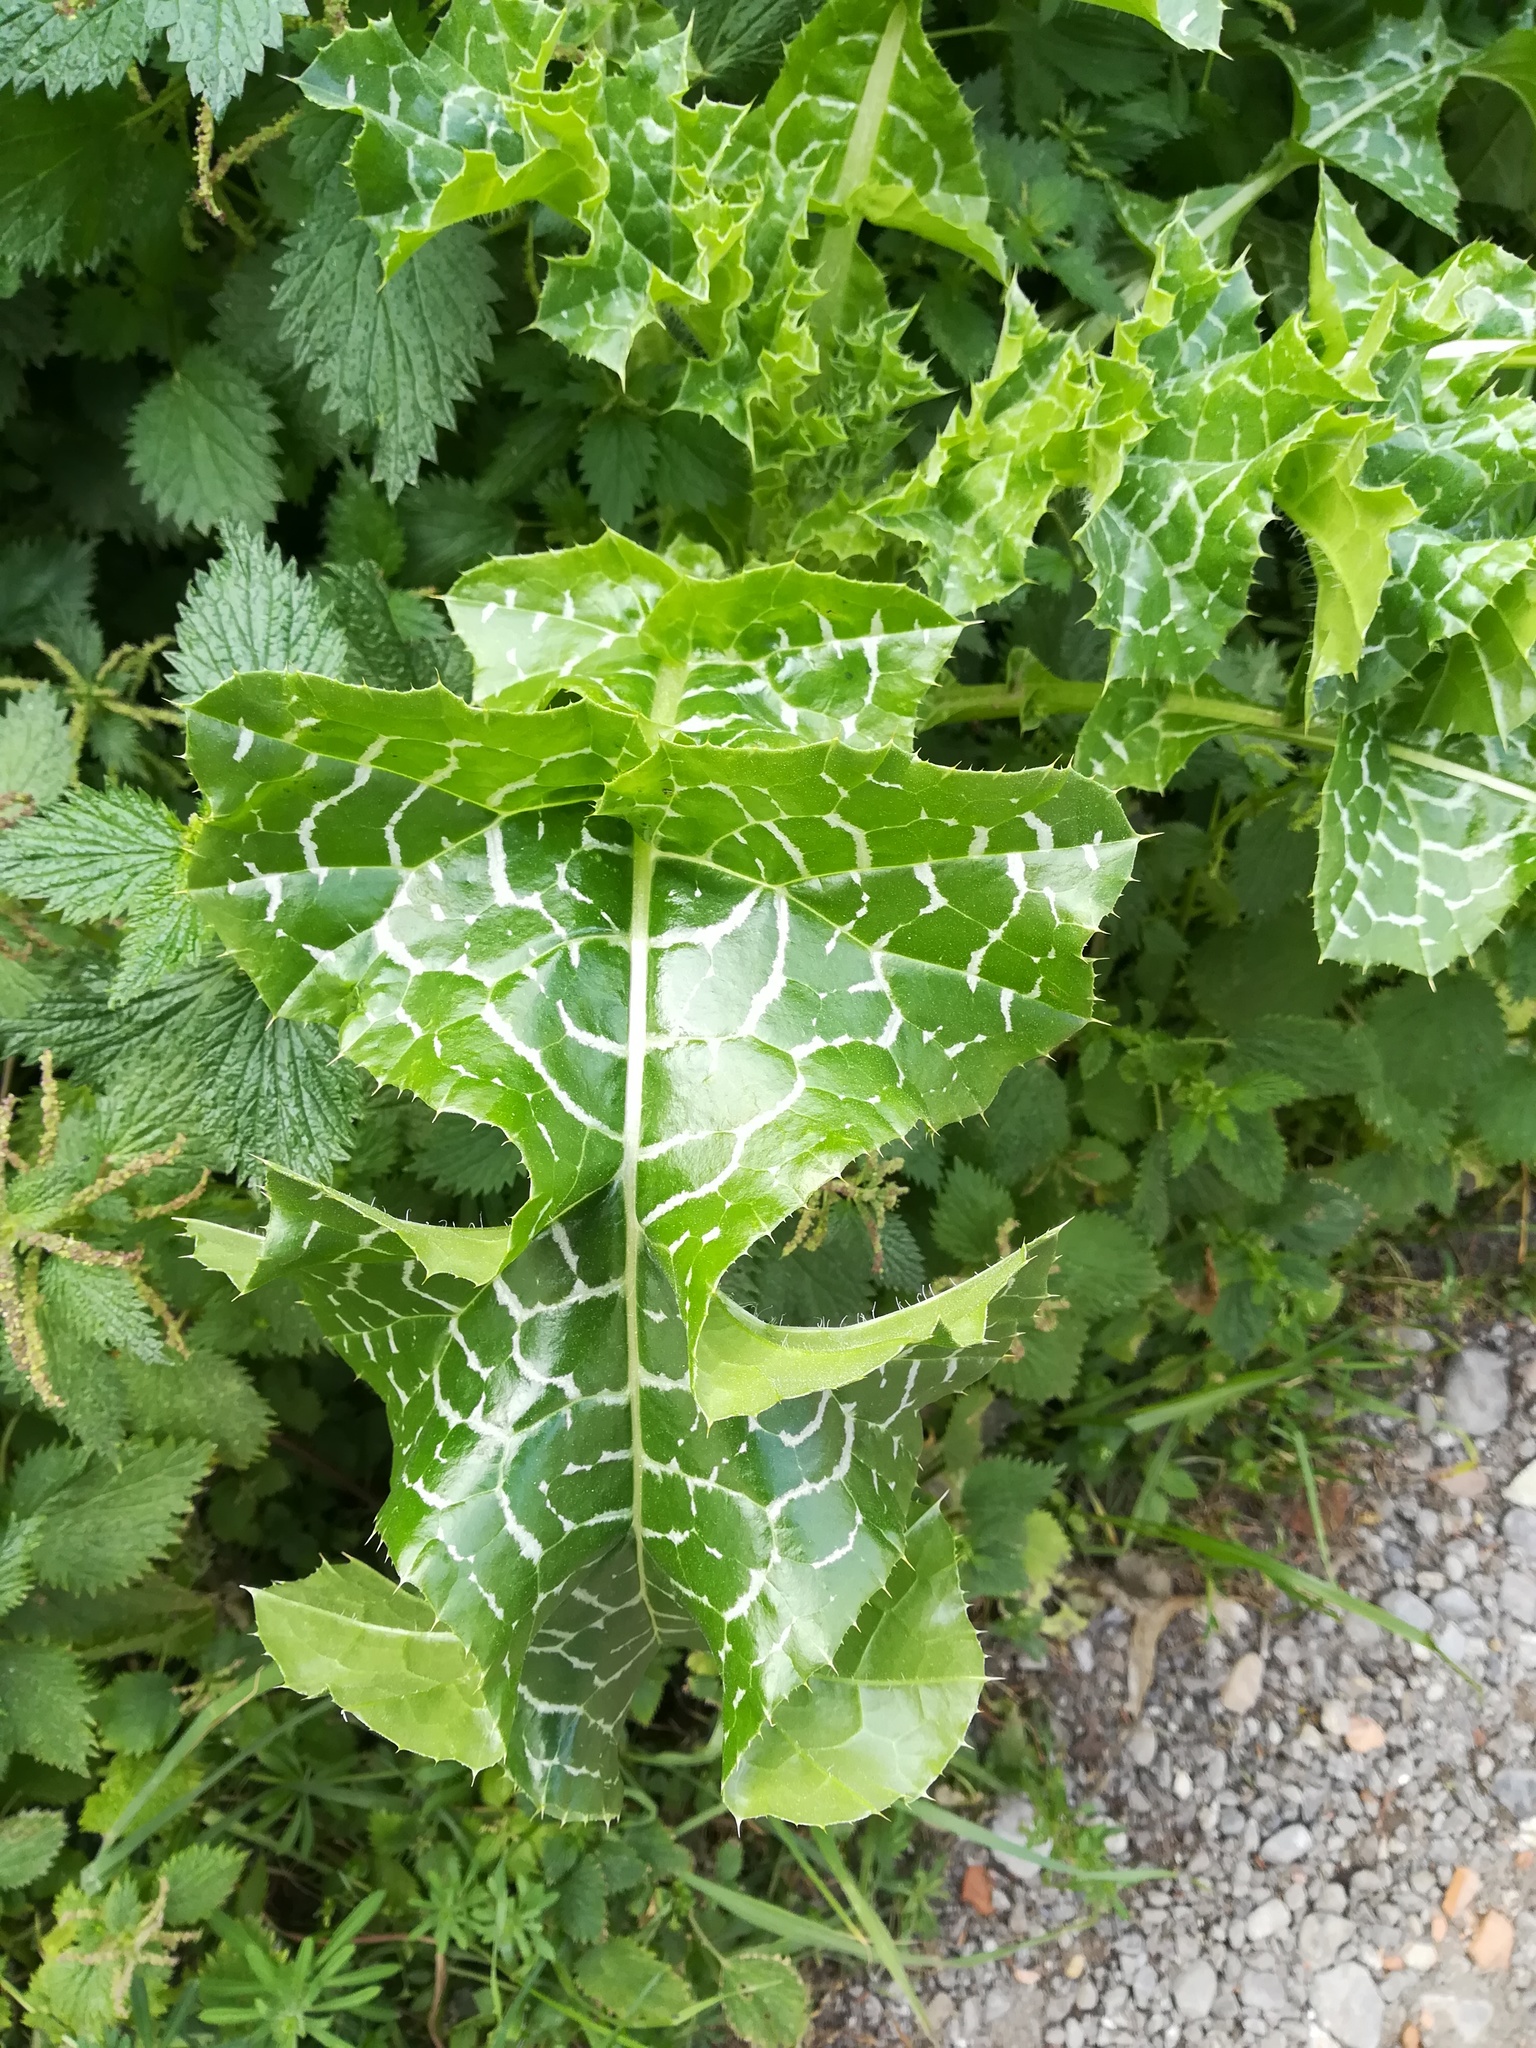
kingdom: Plantae
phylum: Tracheophyta
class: Magnoliopsida
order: Asterales
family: Asteraceae
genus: Silybum
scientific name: Silybum marianum
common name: Milk thistle
